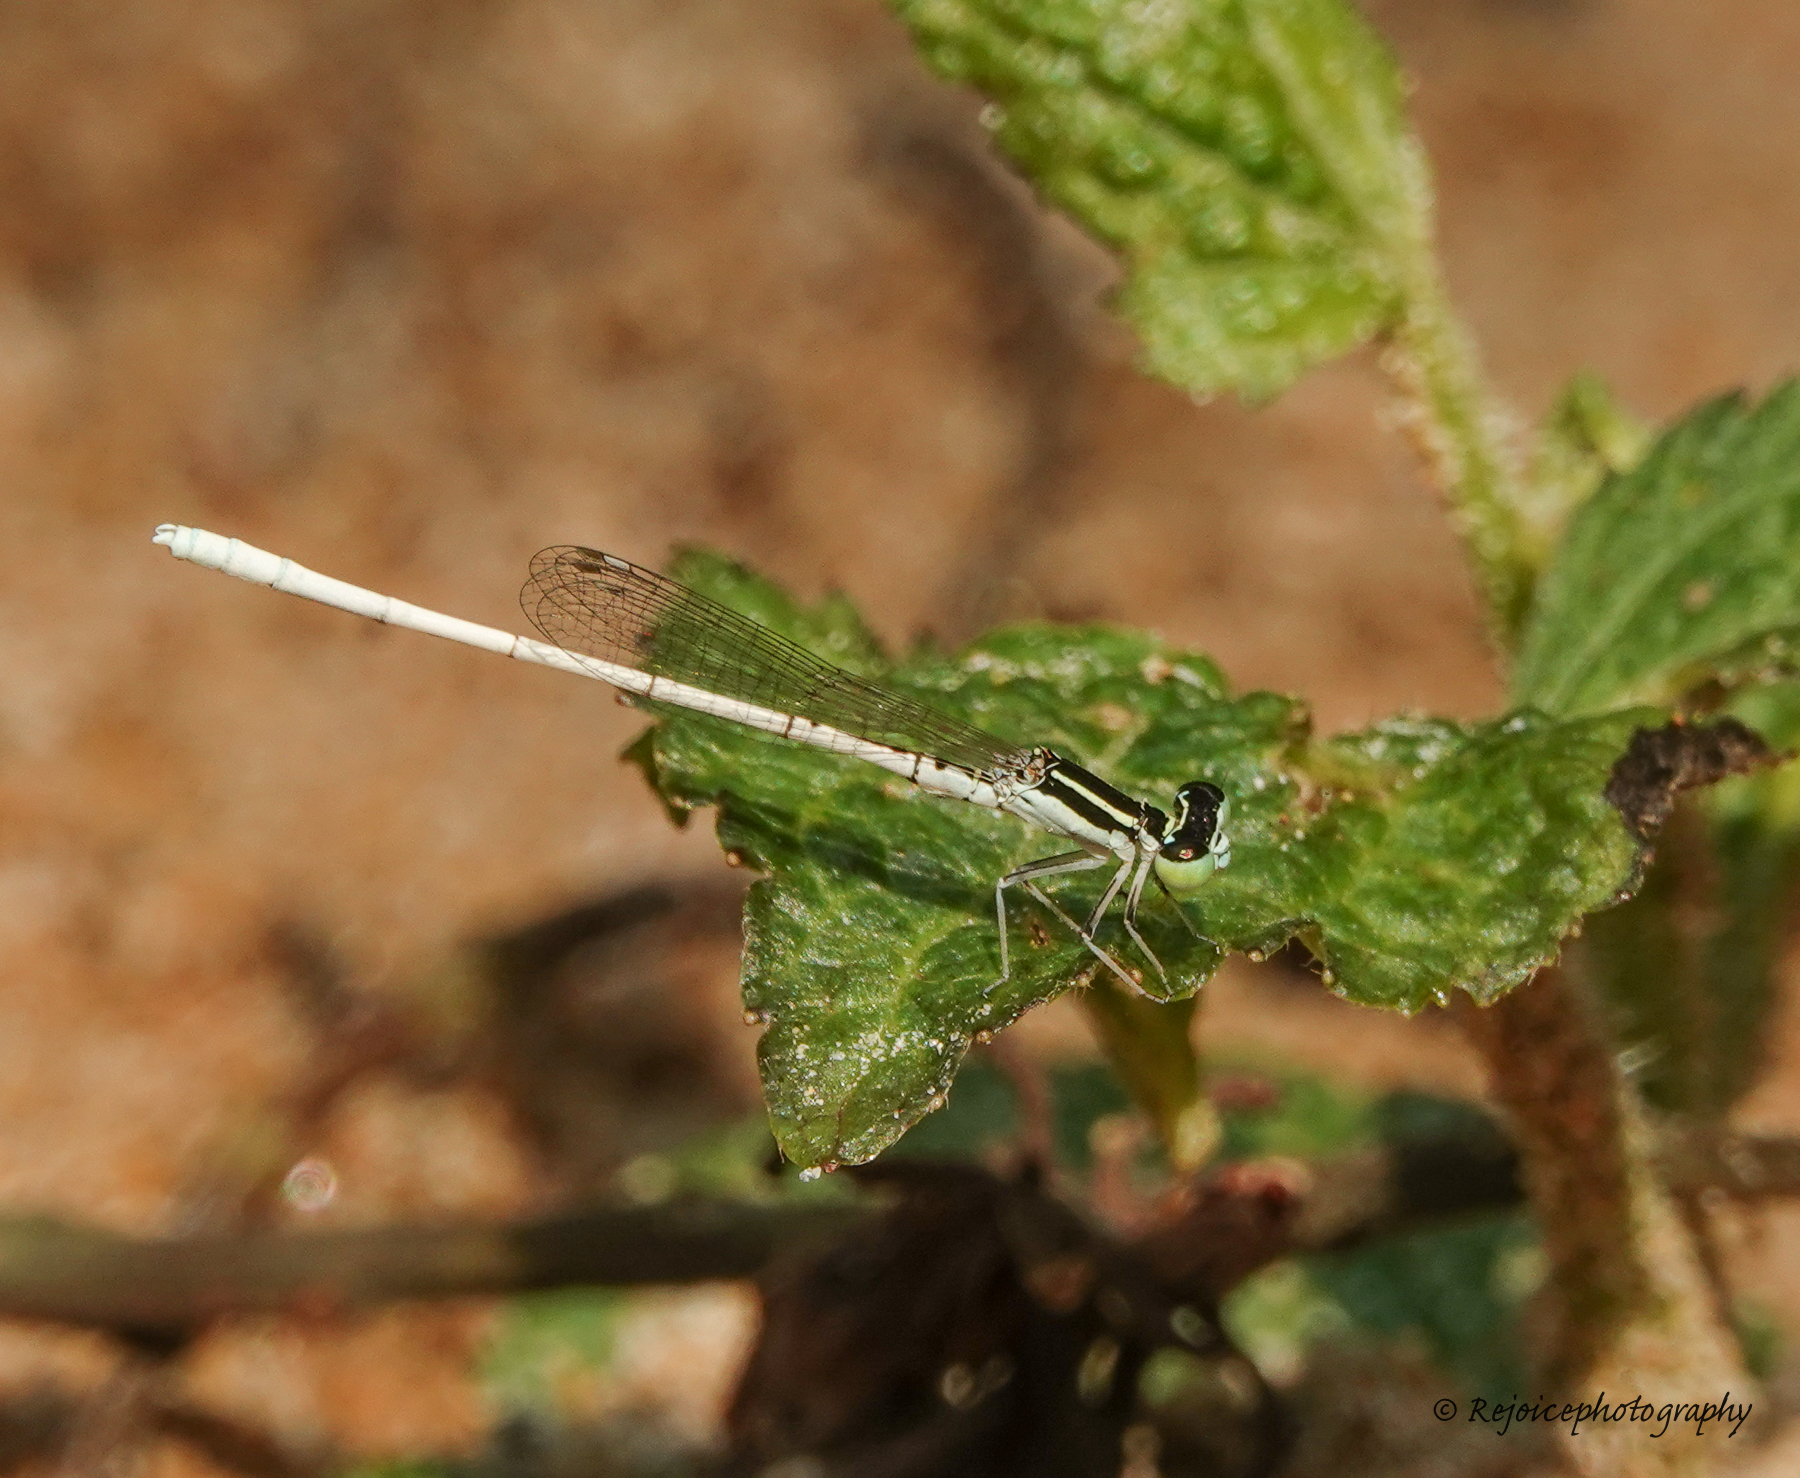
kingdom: Animalia
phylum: Arthropoda
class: Insecta
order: Odonata
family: Coenagrionidae
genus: Agriocnemis
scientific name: Agriocnemis lacteola
